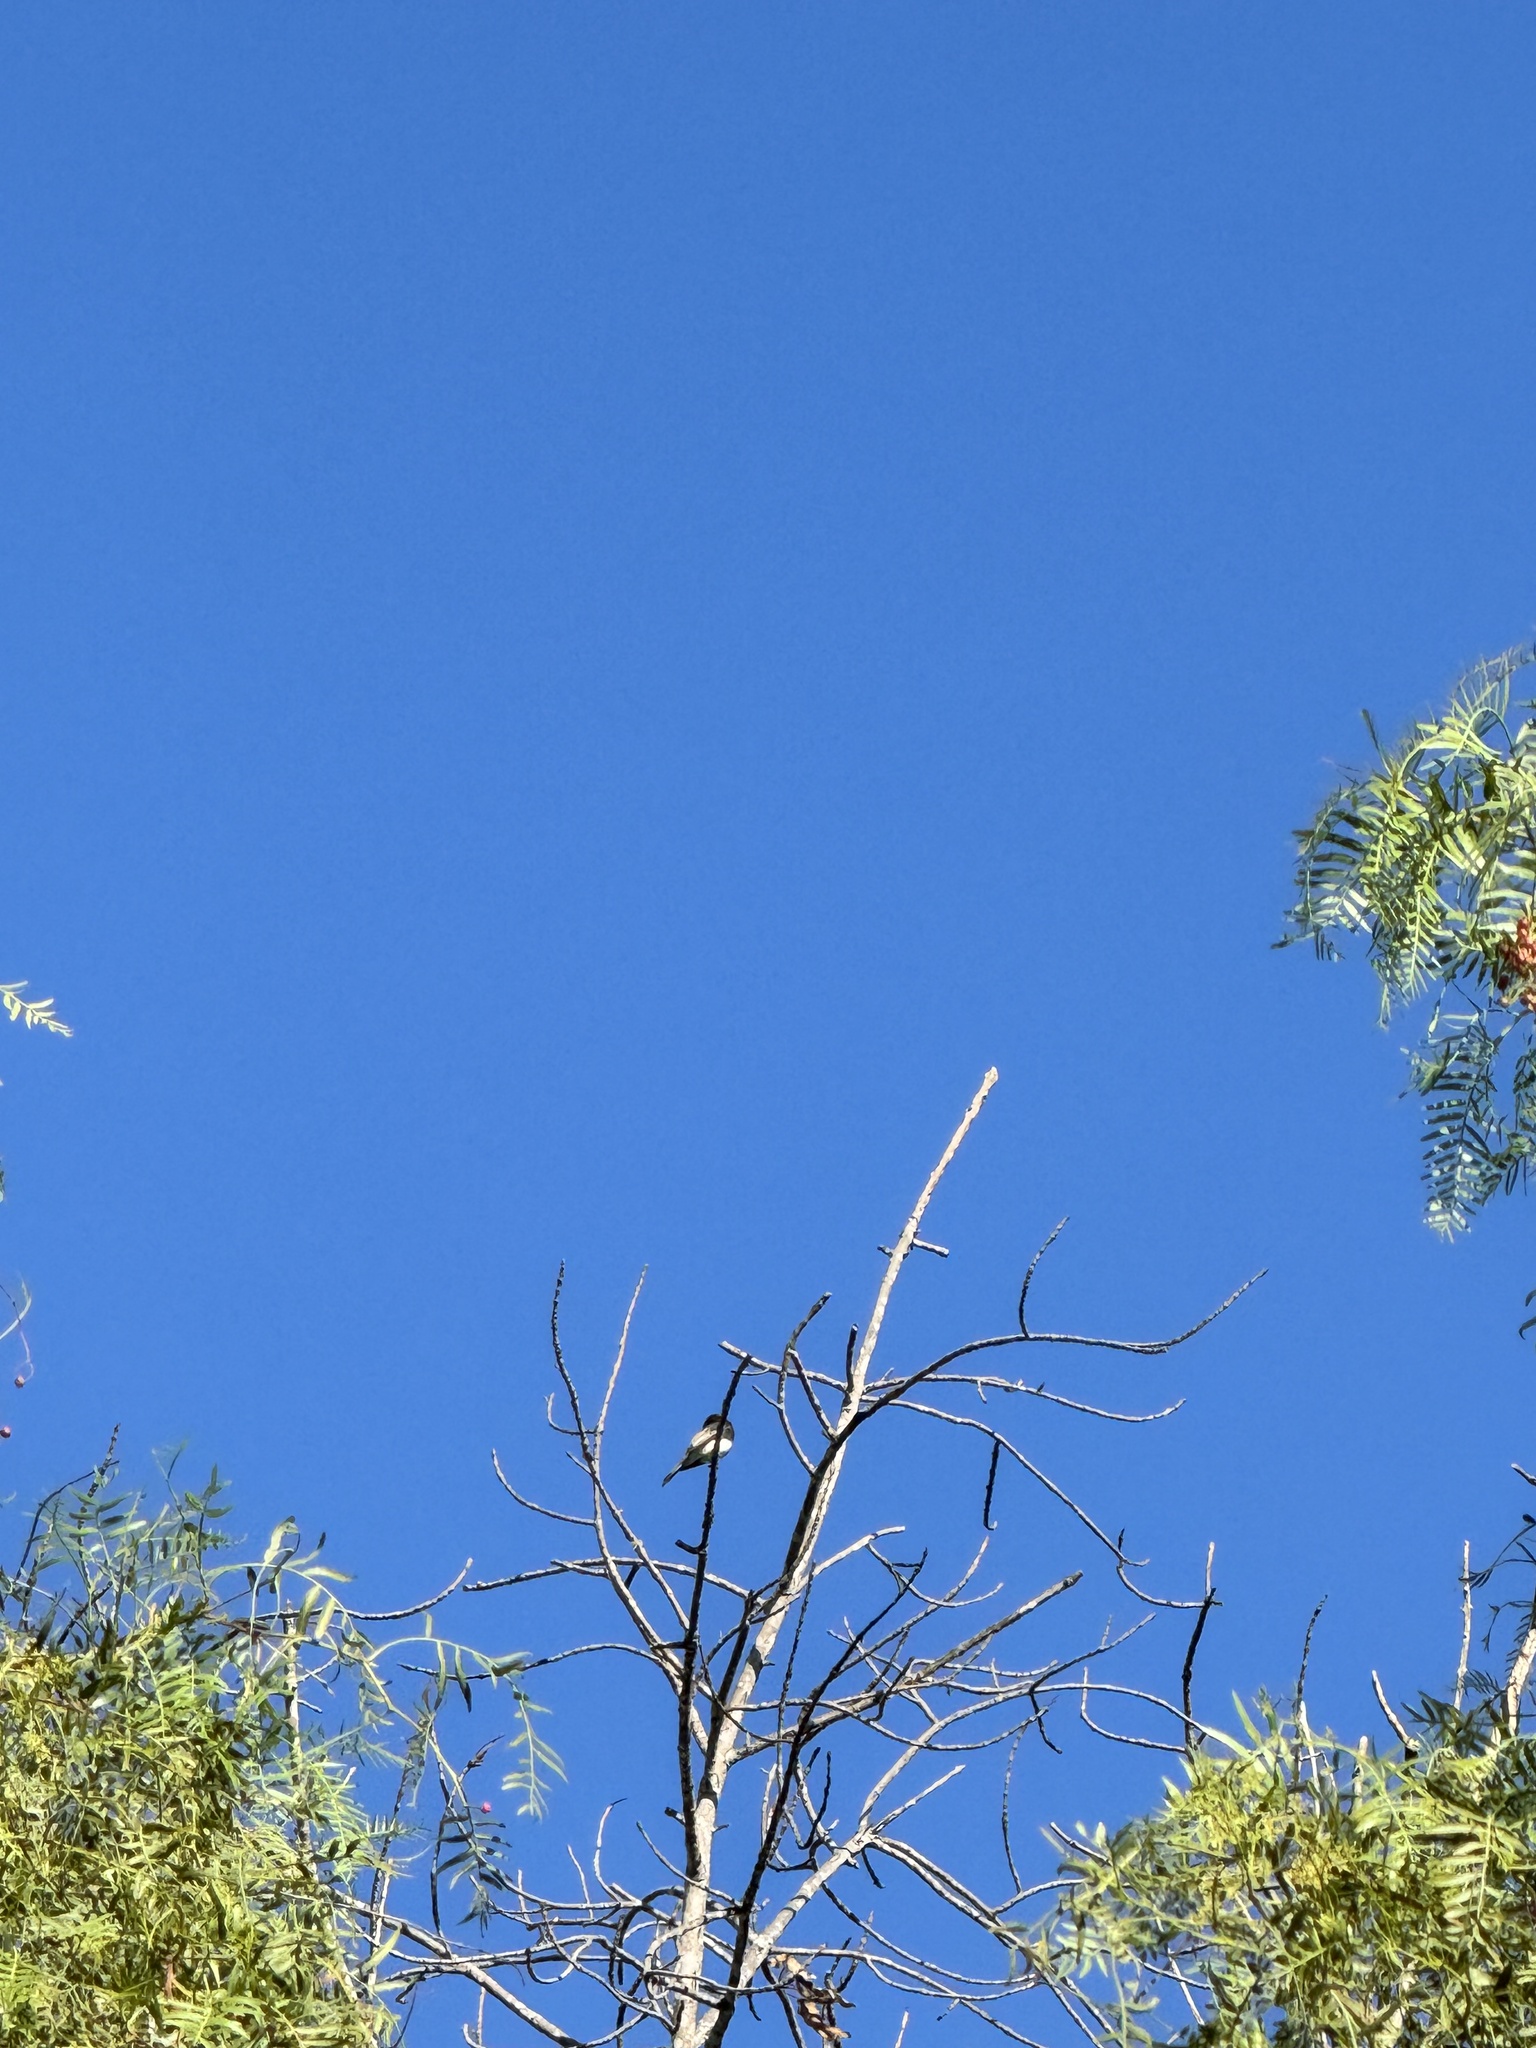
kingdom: Animalia
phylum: Chordata
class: Aves
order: Passeriformes
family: Tyrannidae
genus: Sayornis
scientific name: Sayornis nigricans
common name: Black phoebe
